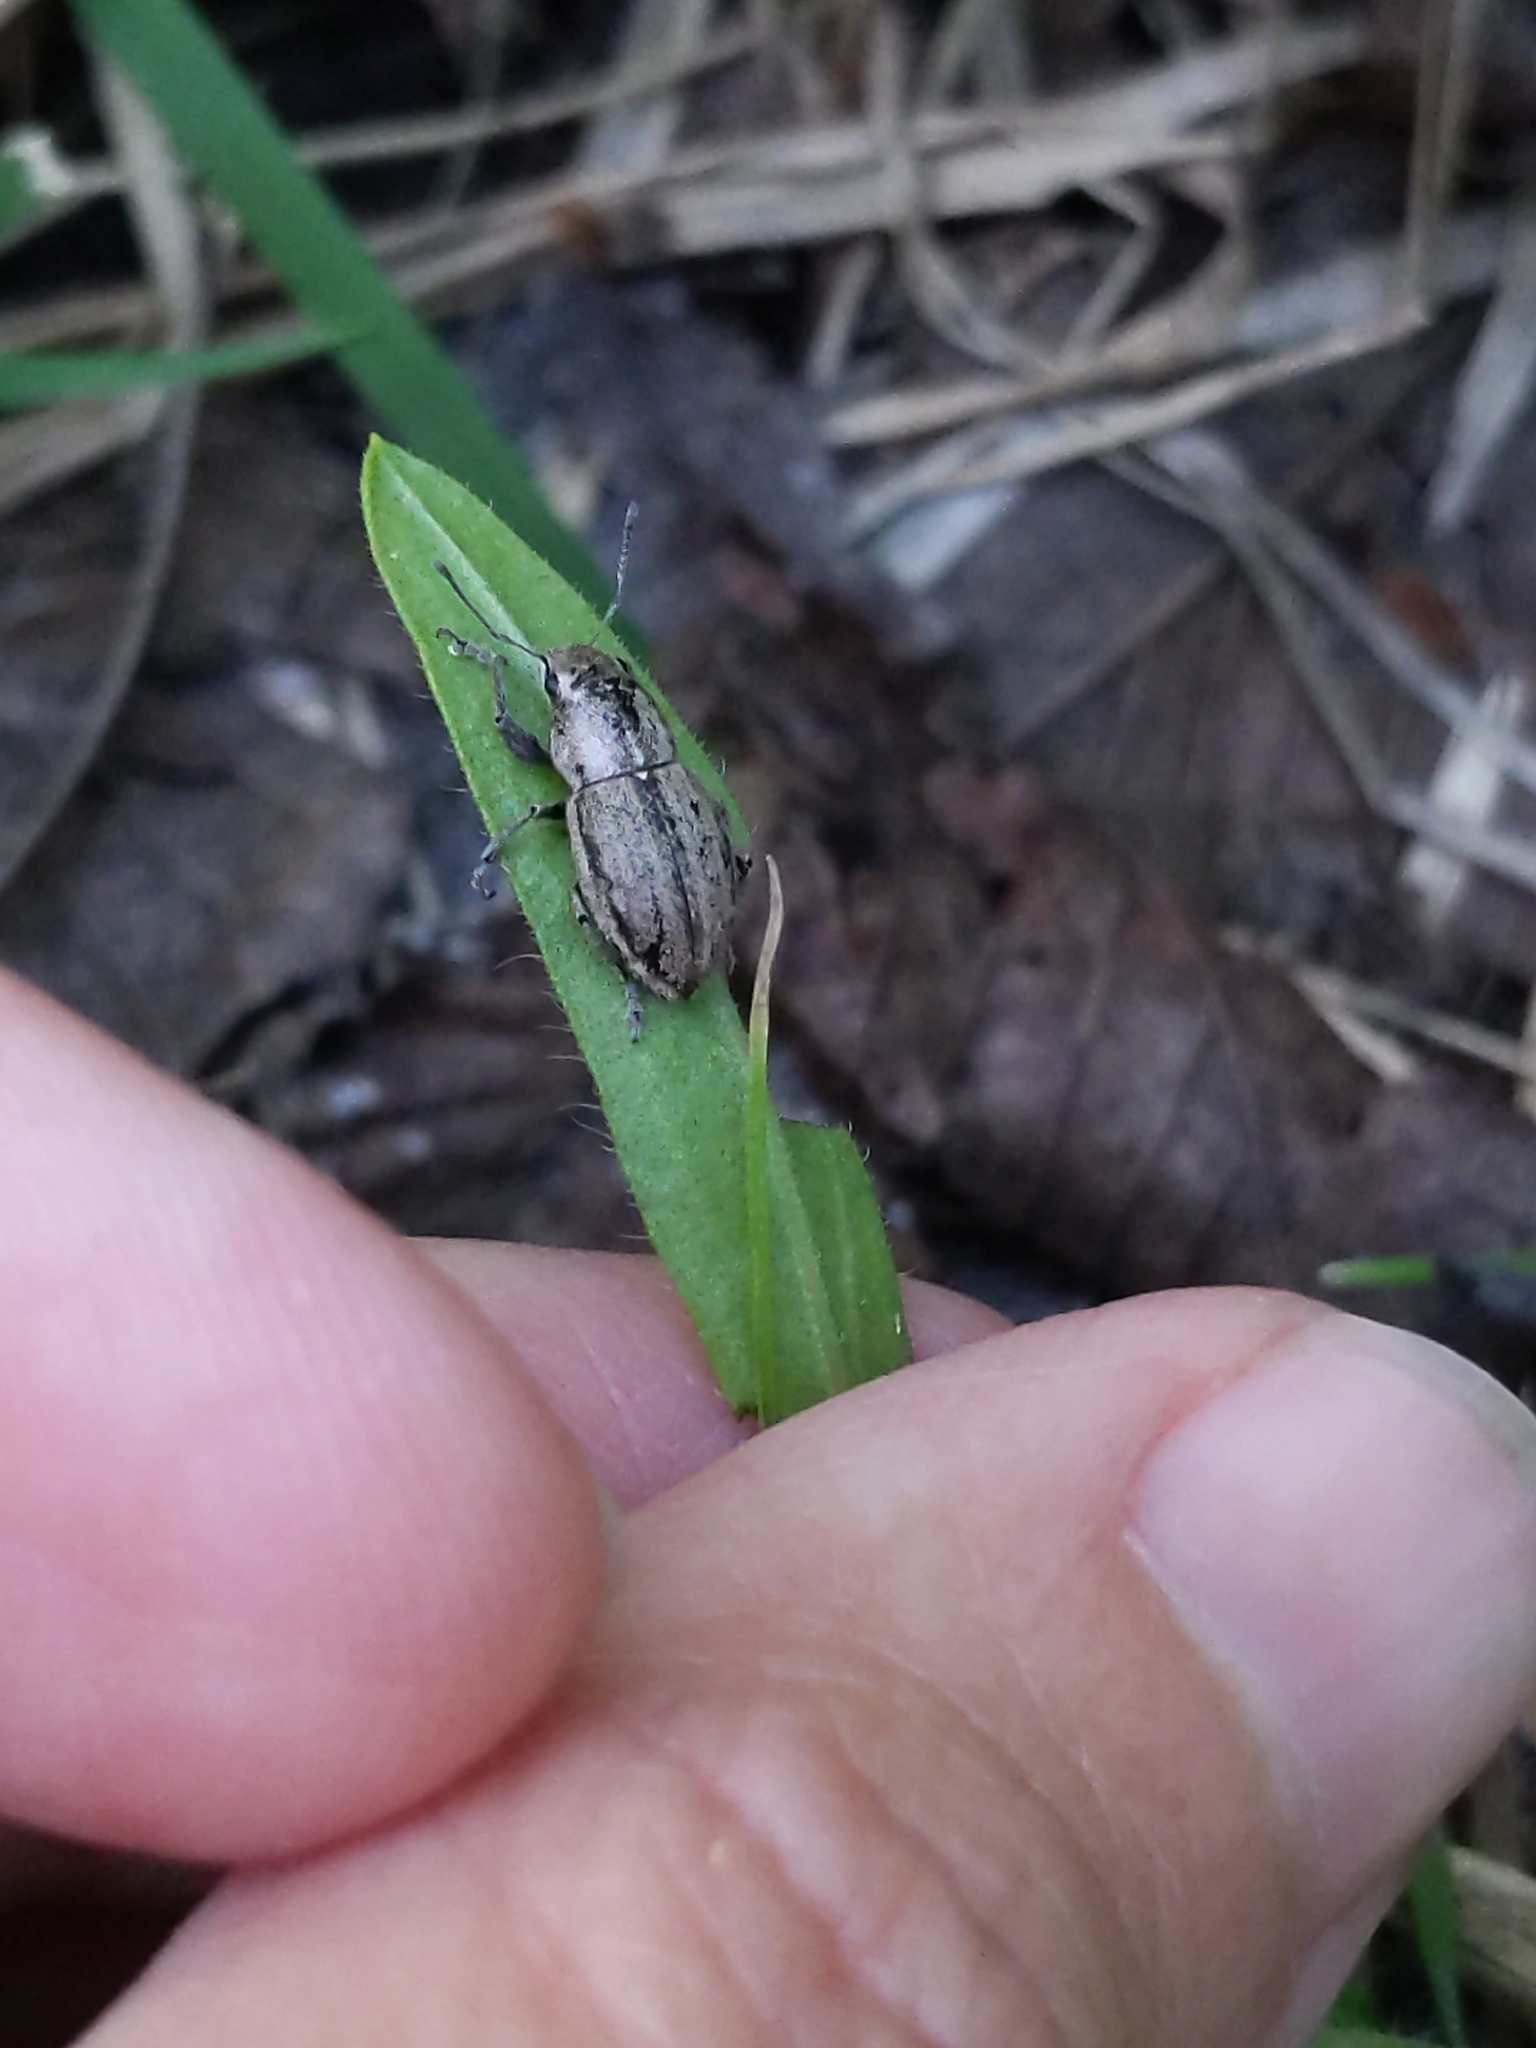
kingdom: Animalia
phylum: Arthropoda
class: Insecta
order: Coleoptera
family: Curculionidae
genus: Naupactus
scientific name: Naupactus peregrinus
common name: Whitefringed beetle
